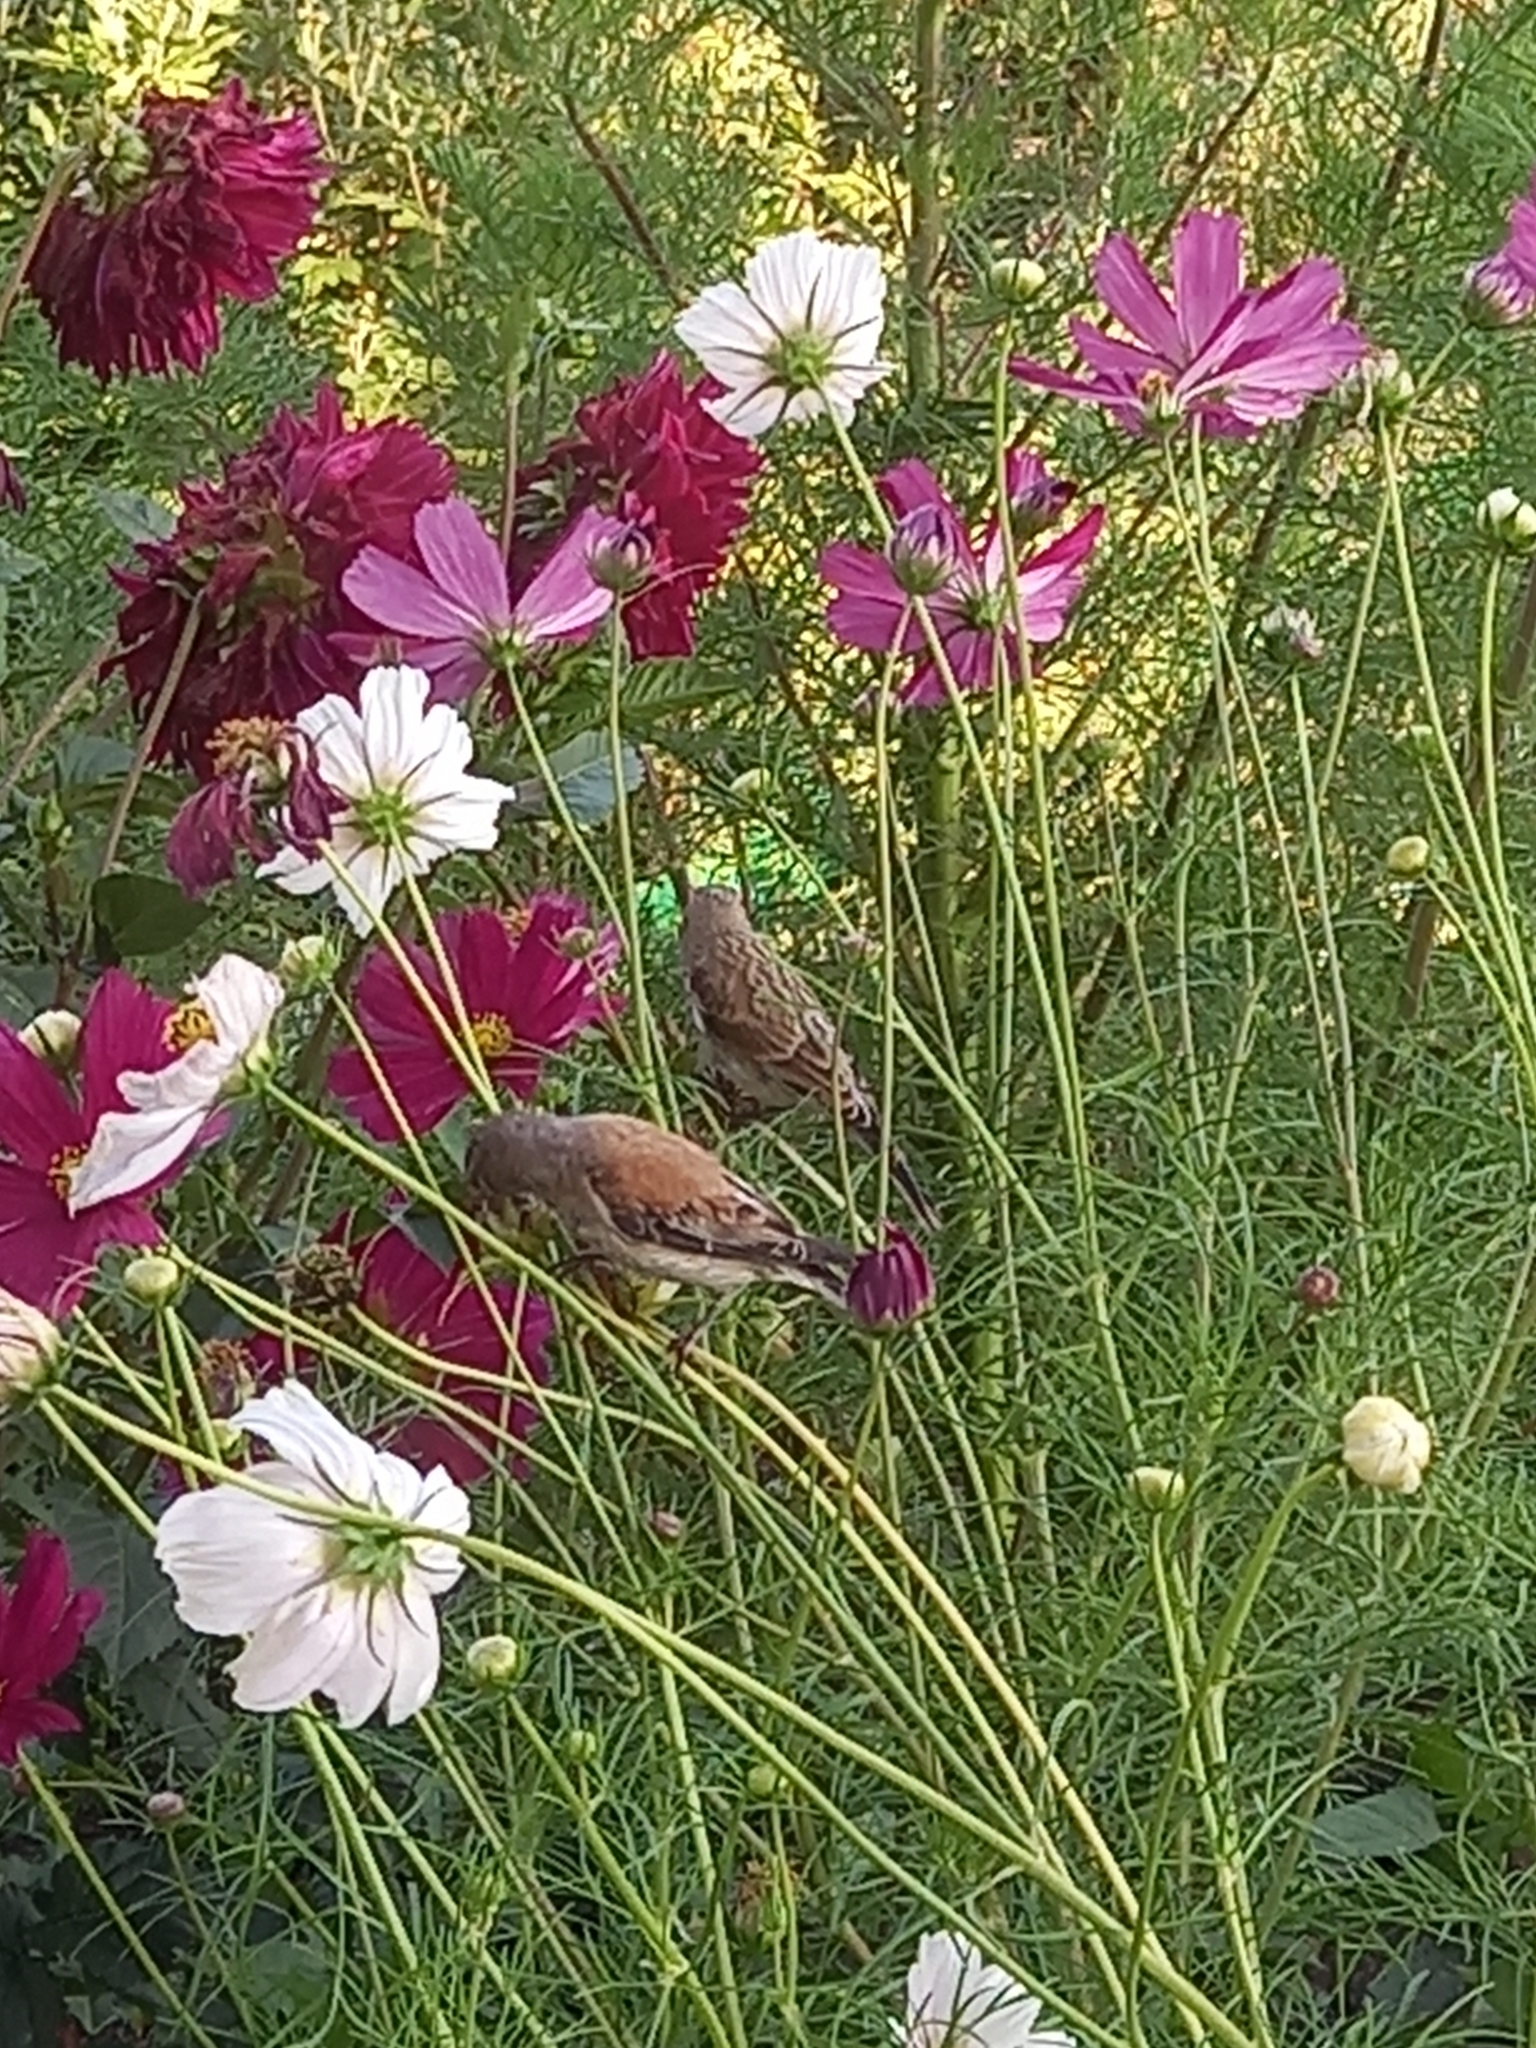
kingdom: Animalia
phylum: Chordata
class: Aves
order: Passeriformes
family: Fringillidae
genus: Linaria
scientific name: Linaria cannabina
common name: Common linnet
